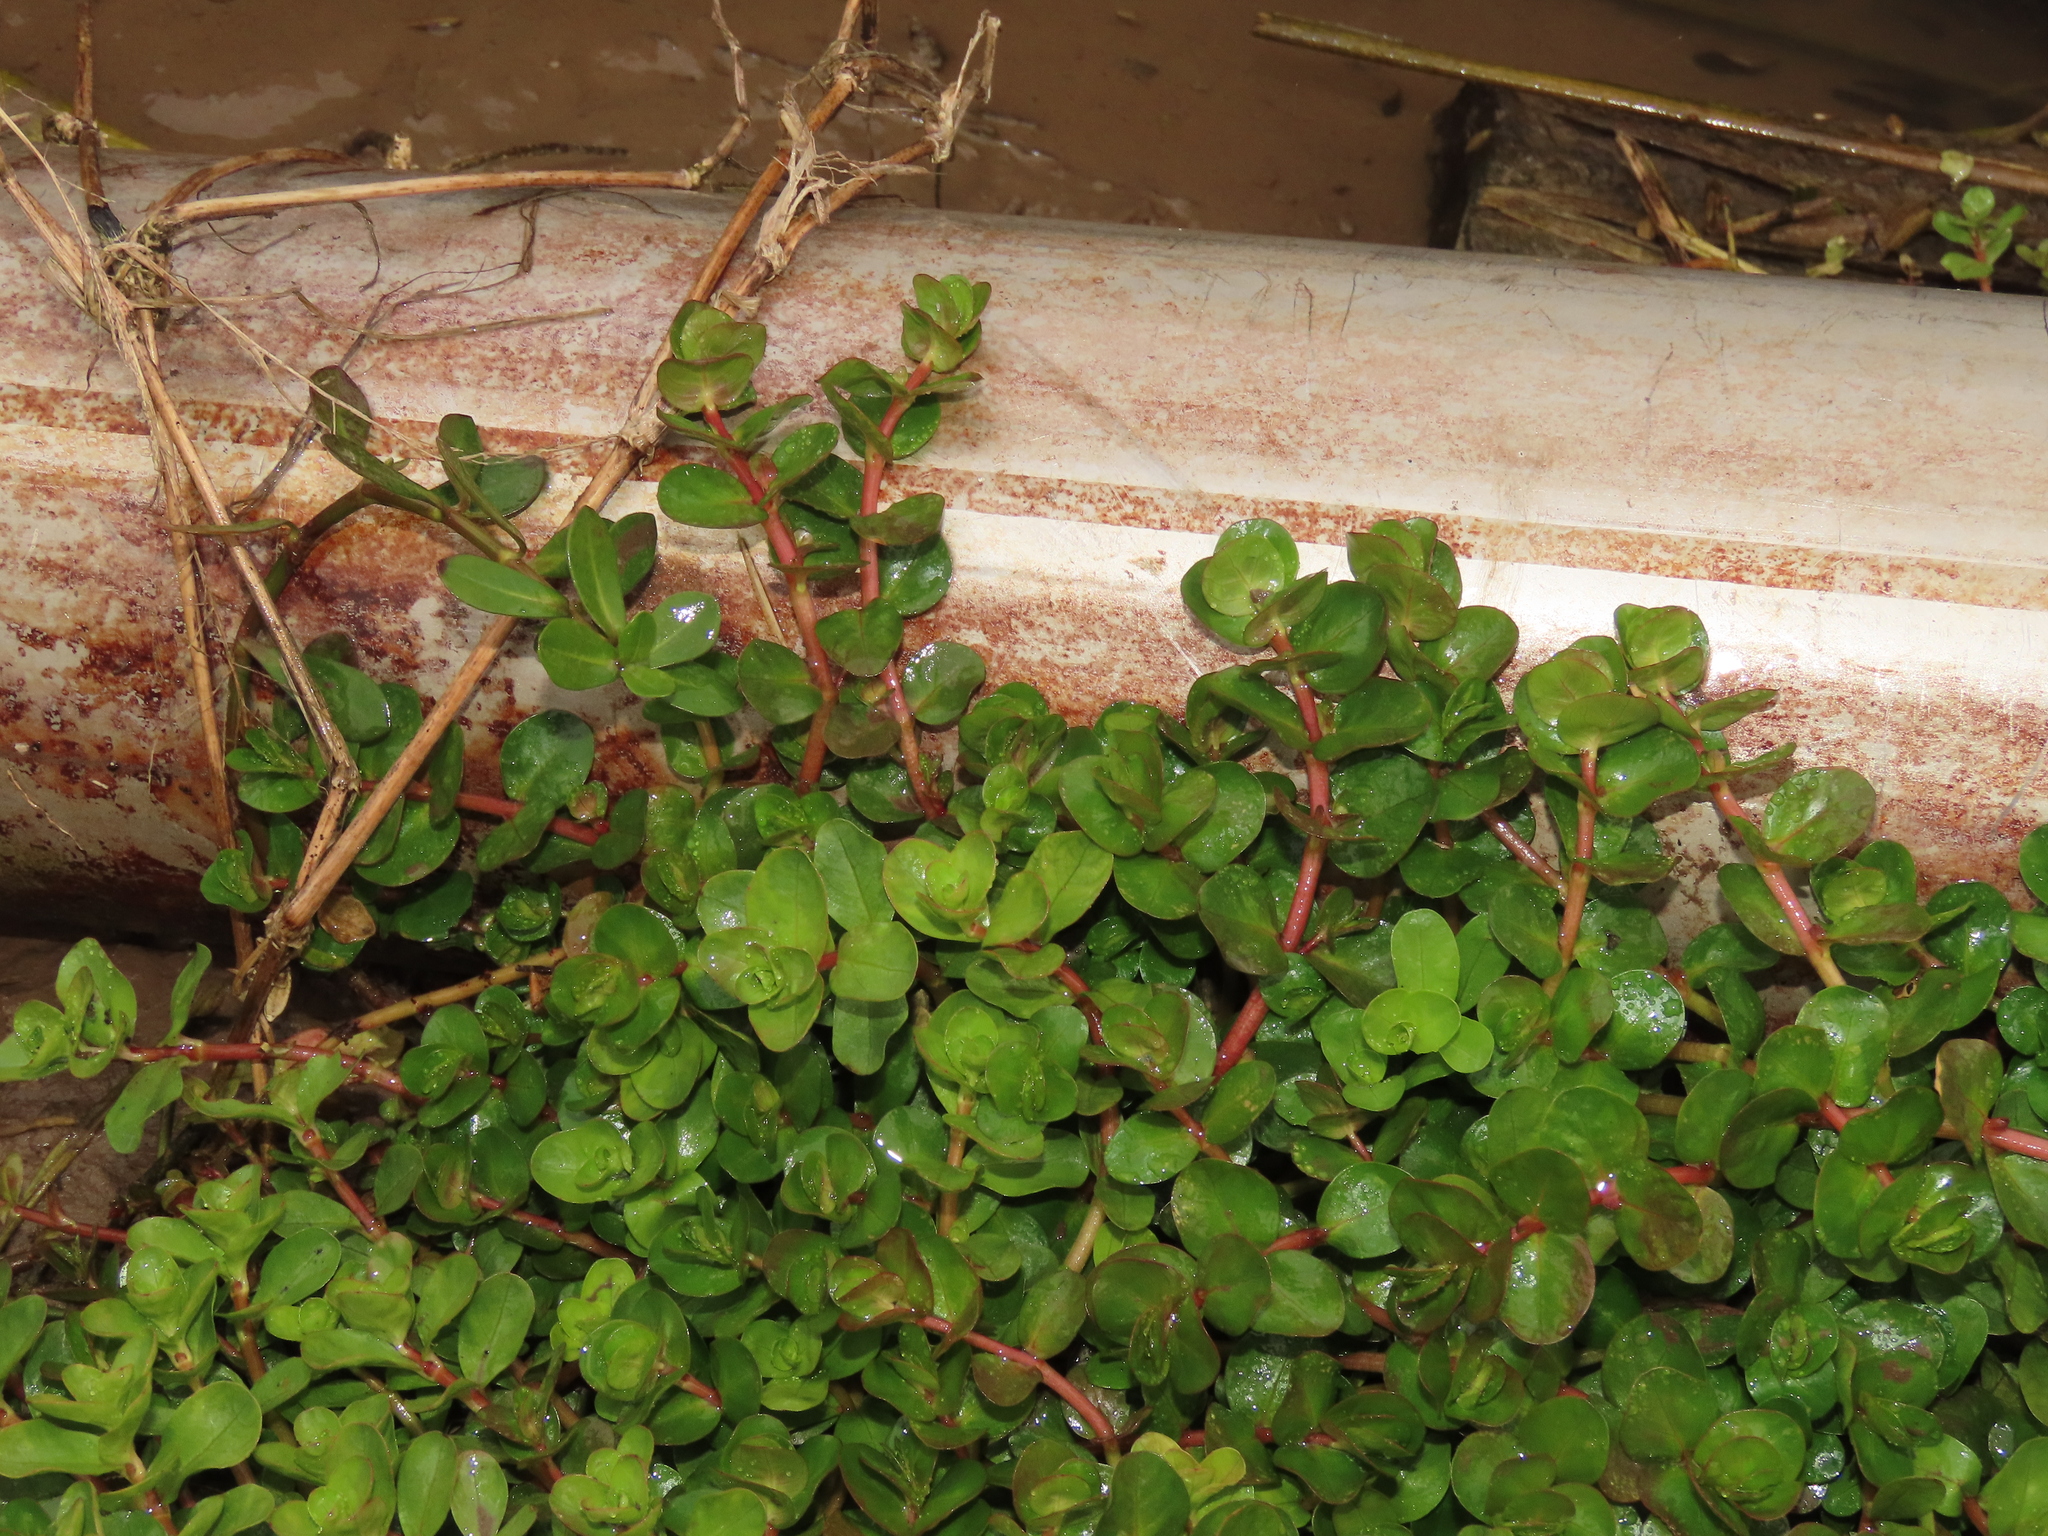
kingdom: Plantae
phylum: Tracheophyta
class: Magnoliopsida
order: Myrtales
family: Lythraceae
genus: Rotala
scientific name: Rotala rotundifolia
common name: Roundleaf toothcup
